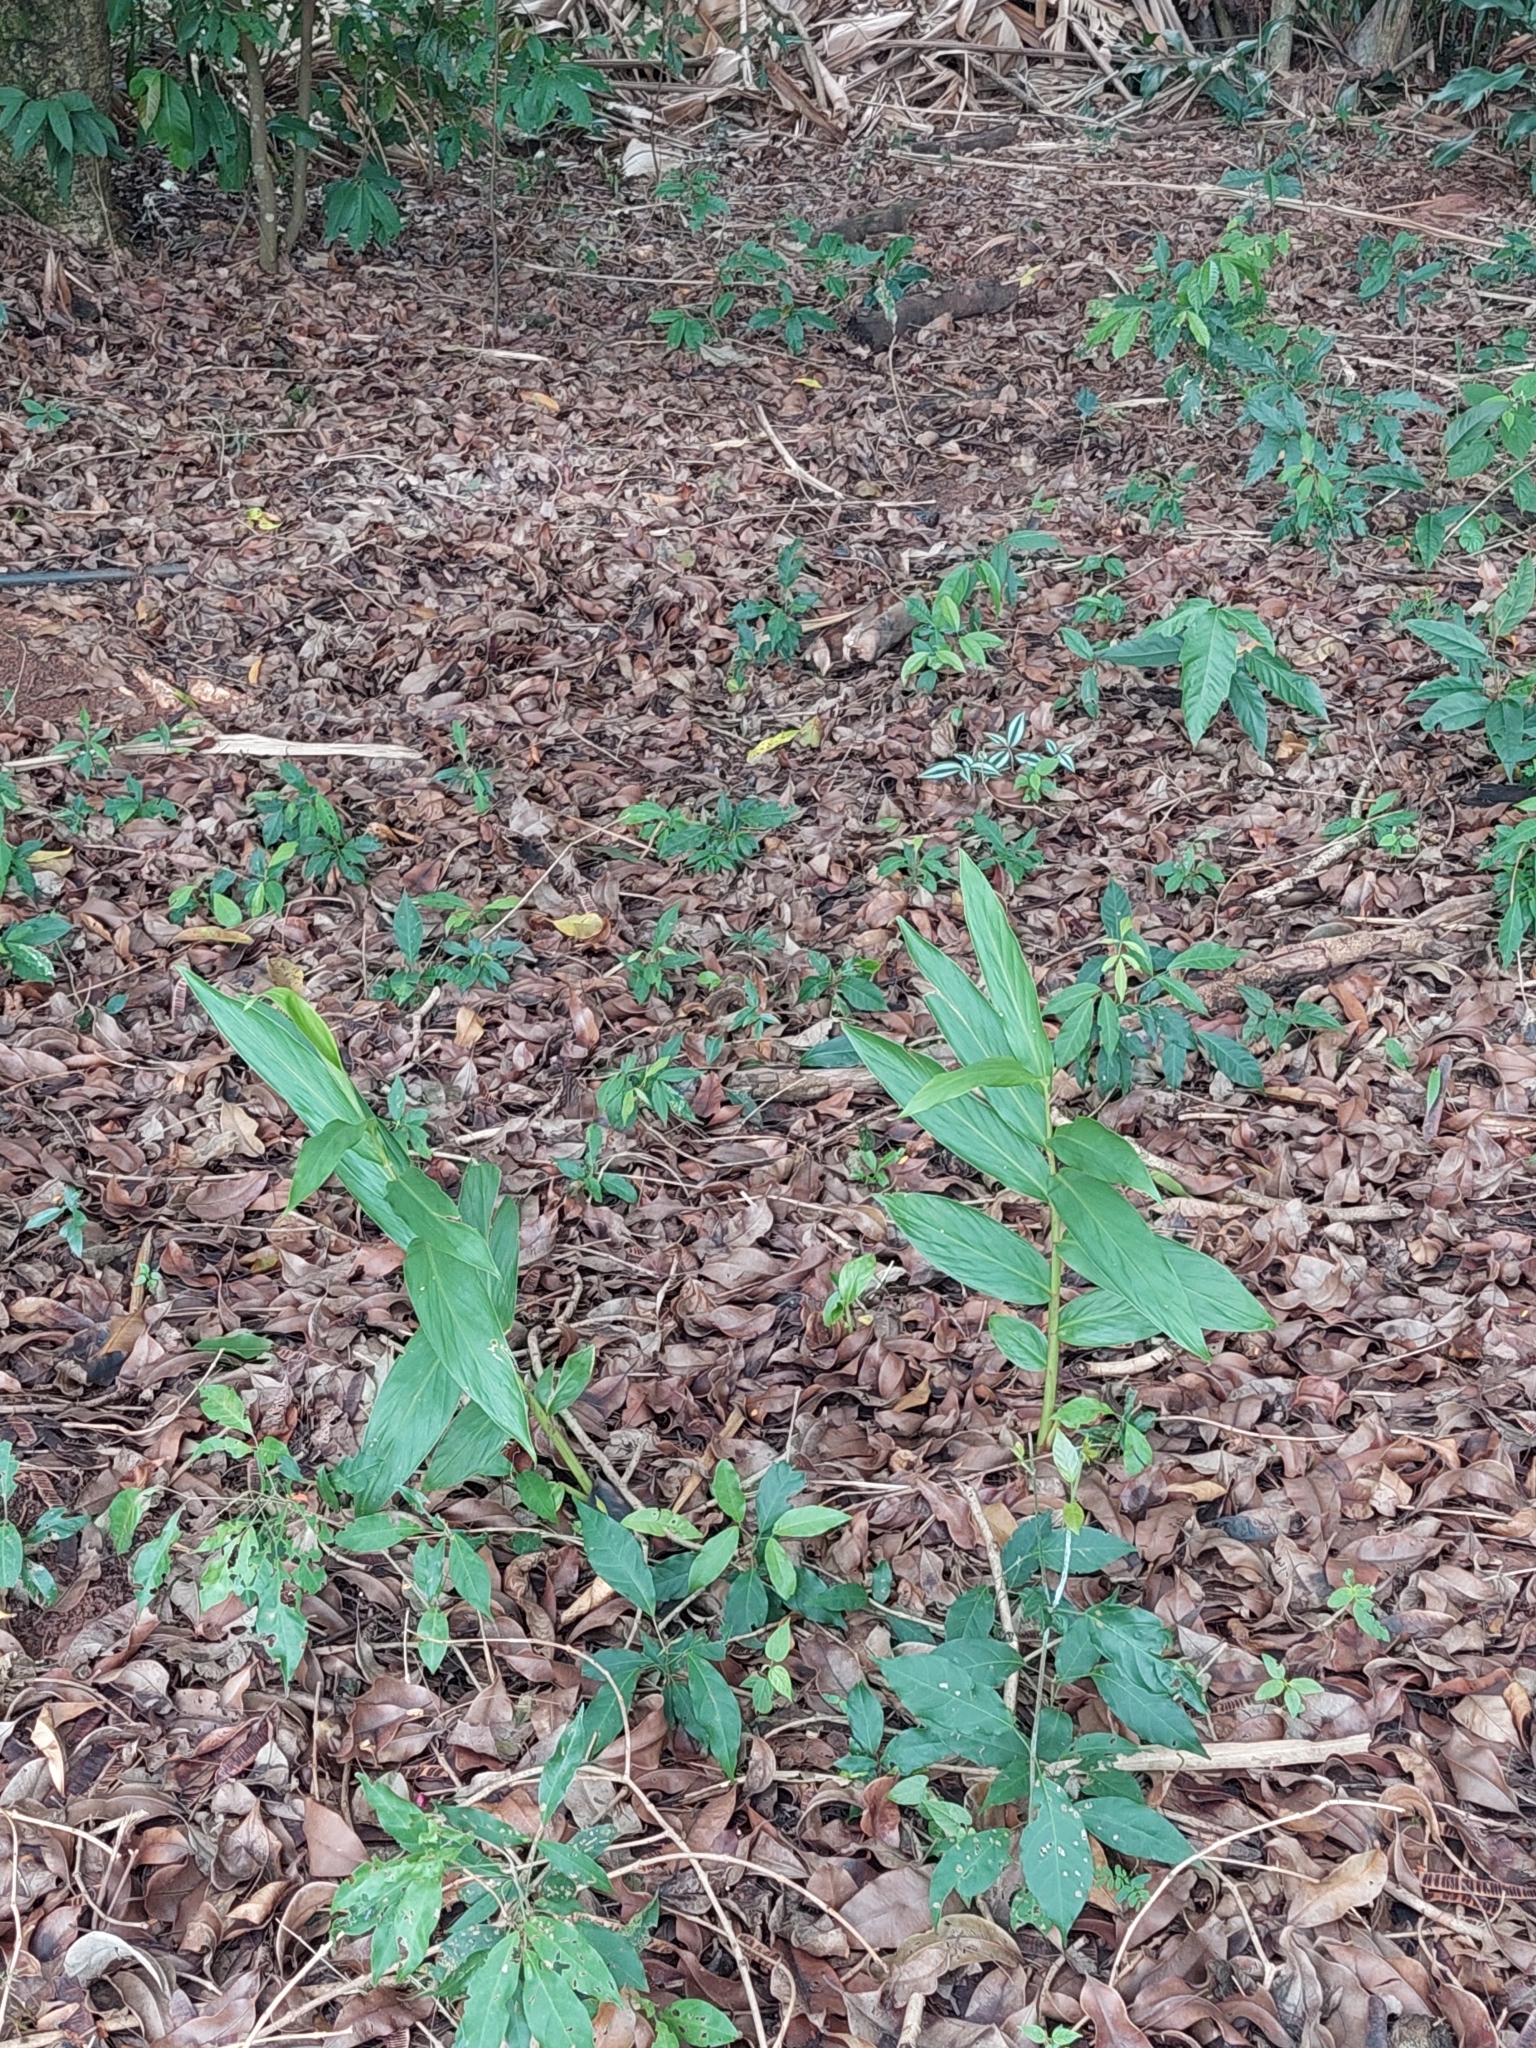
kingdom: Plantae
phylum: Tracheophyta
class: Liliopsida
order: Zingiberales
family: Zingiberaceae
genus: Hedychium
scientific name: Hedychium coronarium
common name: White garland-lily
